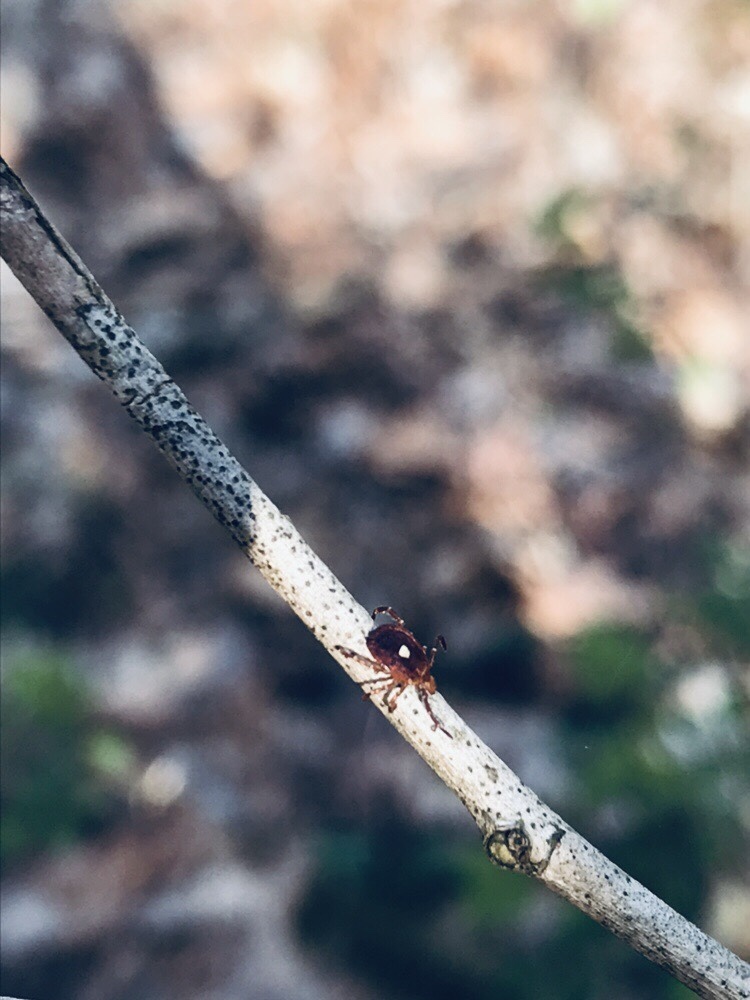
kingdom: Animalia
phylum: Arthropoda
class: Arachnida
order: Ixodida
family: Ixodidae
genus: Amblyomma
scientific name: Amblyomma americanum
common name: Lone star tick
